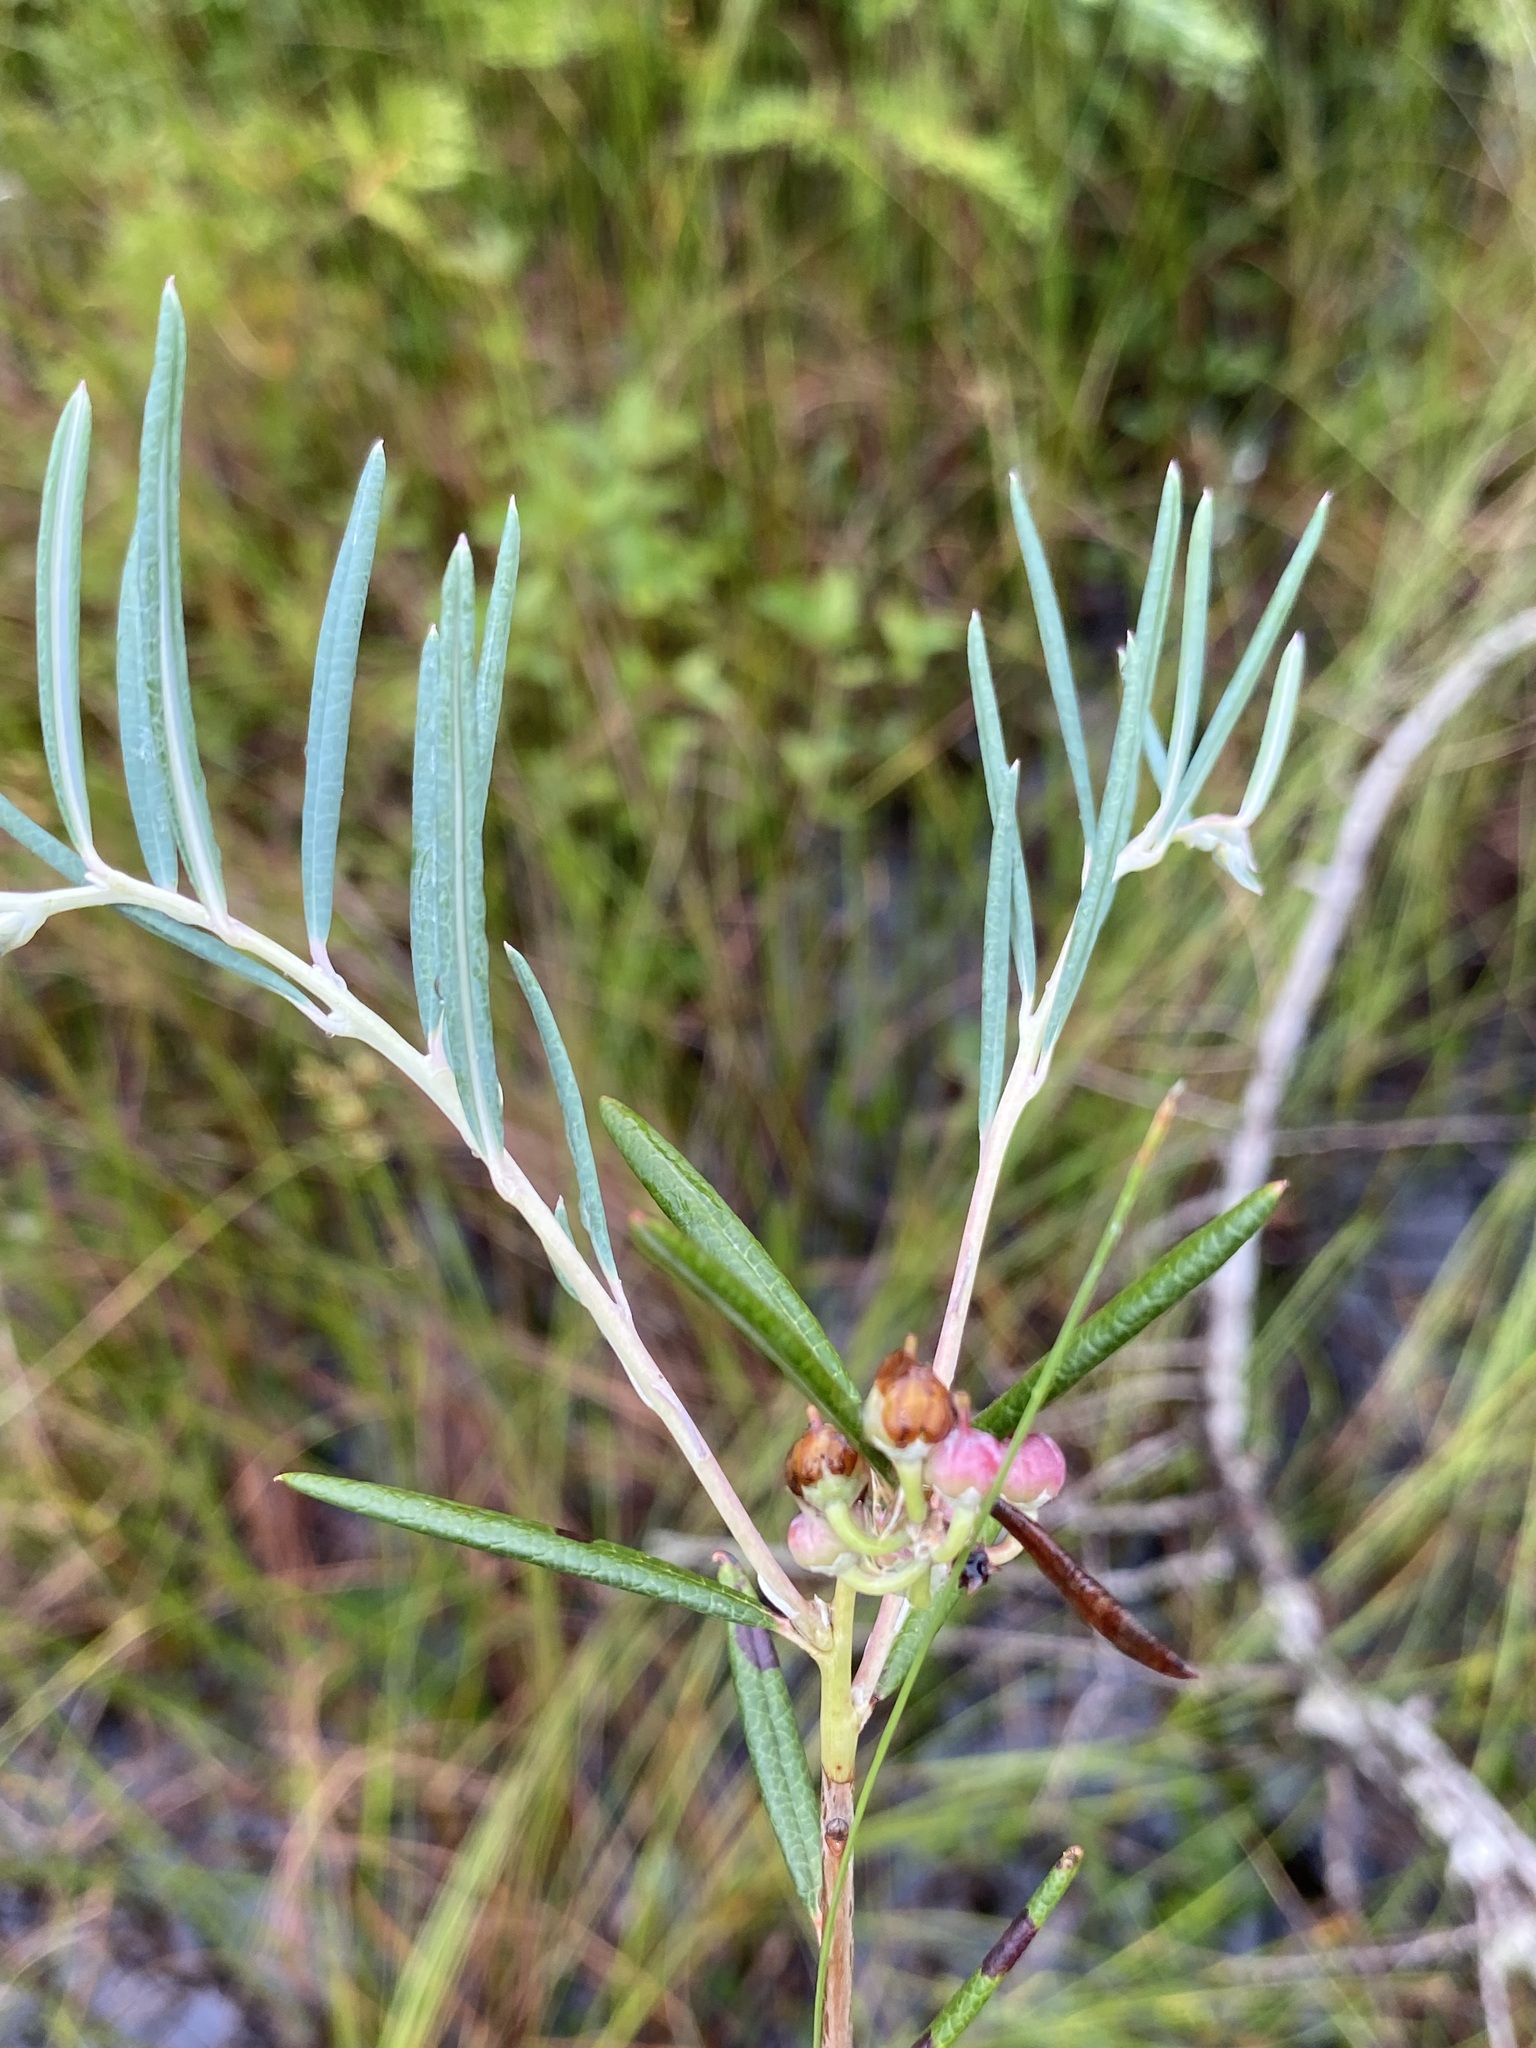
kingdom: Plantae
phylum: Tracheophyta
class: Magnoliopsida
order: Ericales
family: Ericaceae
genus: Andromeda
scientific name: Andromeda polifolia
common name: Bog-rosemary
